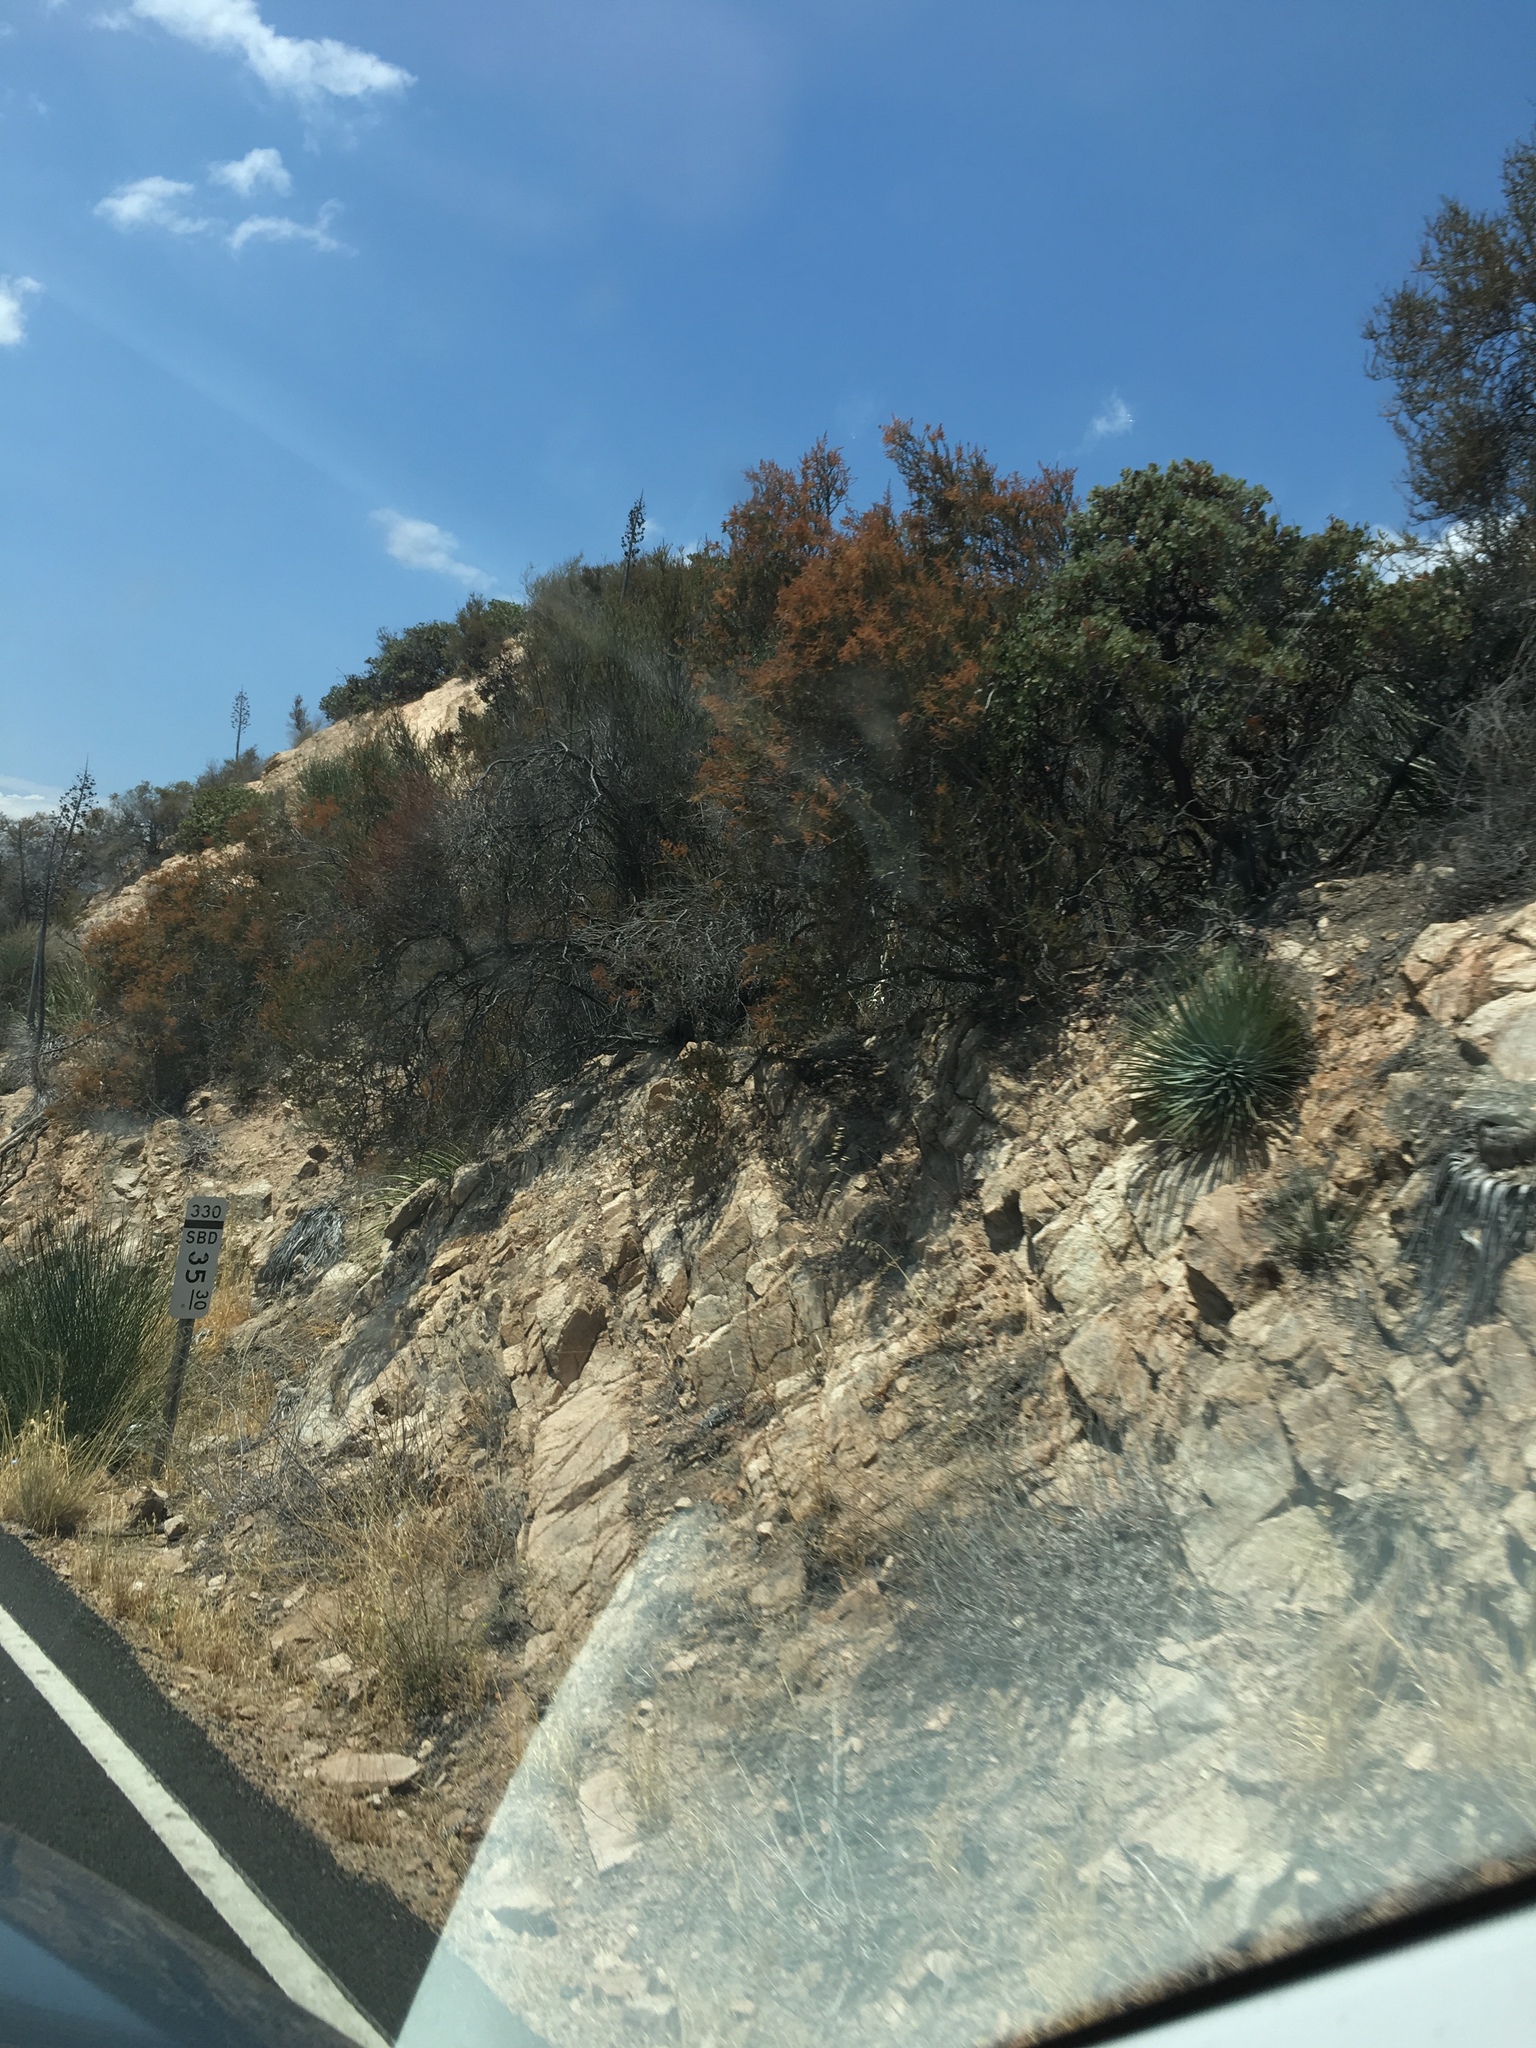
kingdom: Plantae
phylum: Tracheophyta
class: Magnoliopsida
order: Rosales
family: Rosaceae
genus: Adenostoma
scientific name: Adenostoma fasciculatum
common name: Chamise
